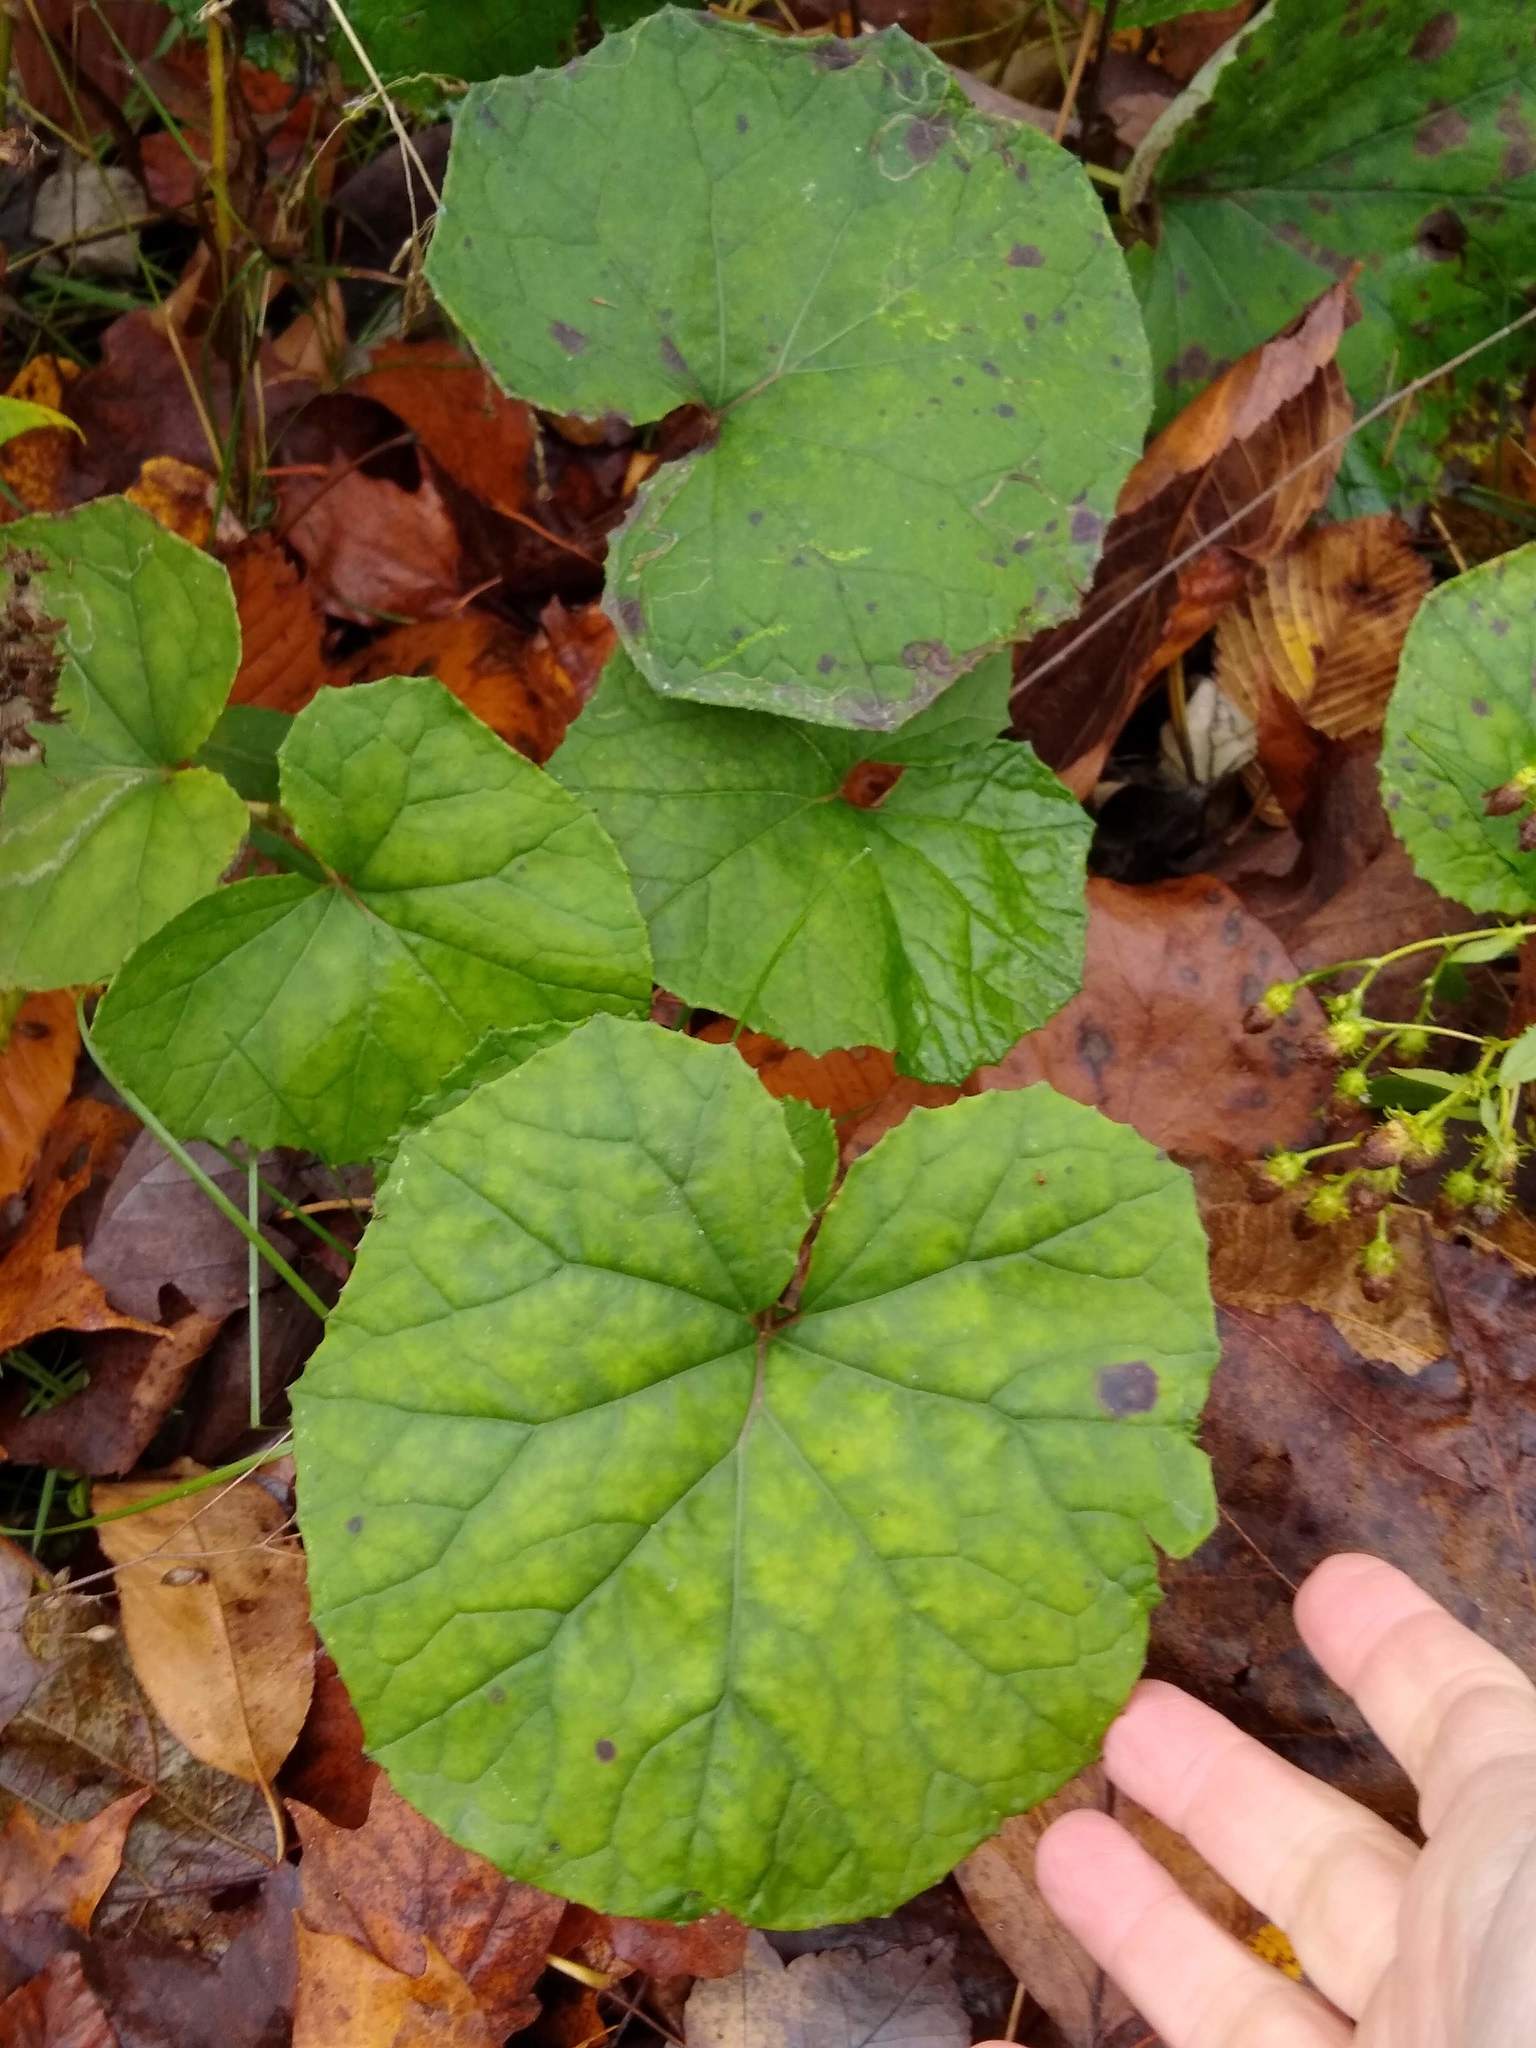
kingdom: Plantae
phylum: Tracheophyta
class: Magnoliopsida
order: Asterales
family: Asteraceae
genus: Tussilago
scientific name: Tussilago farfara
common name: Coltsfoot
